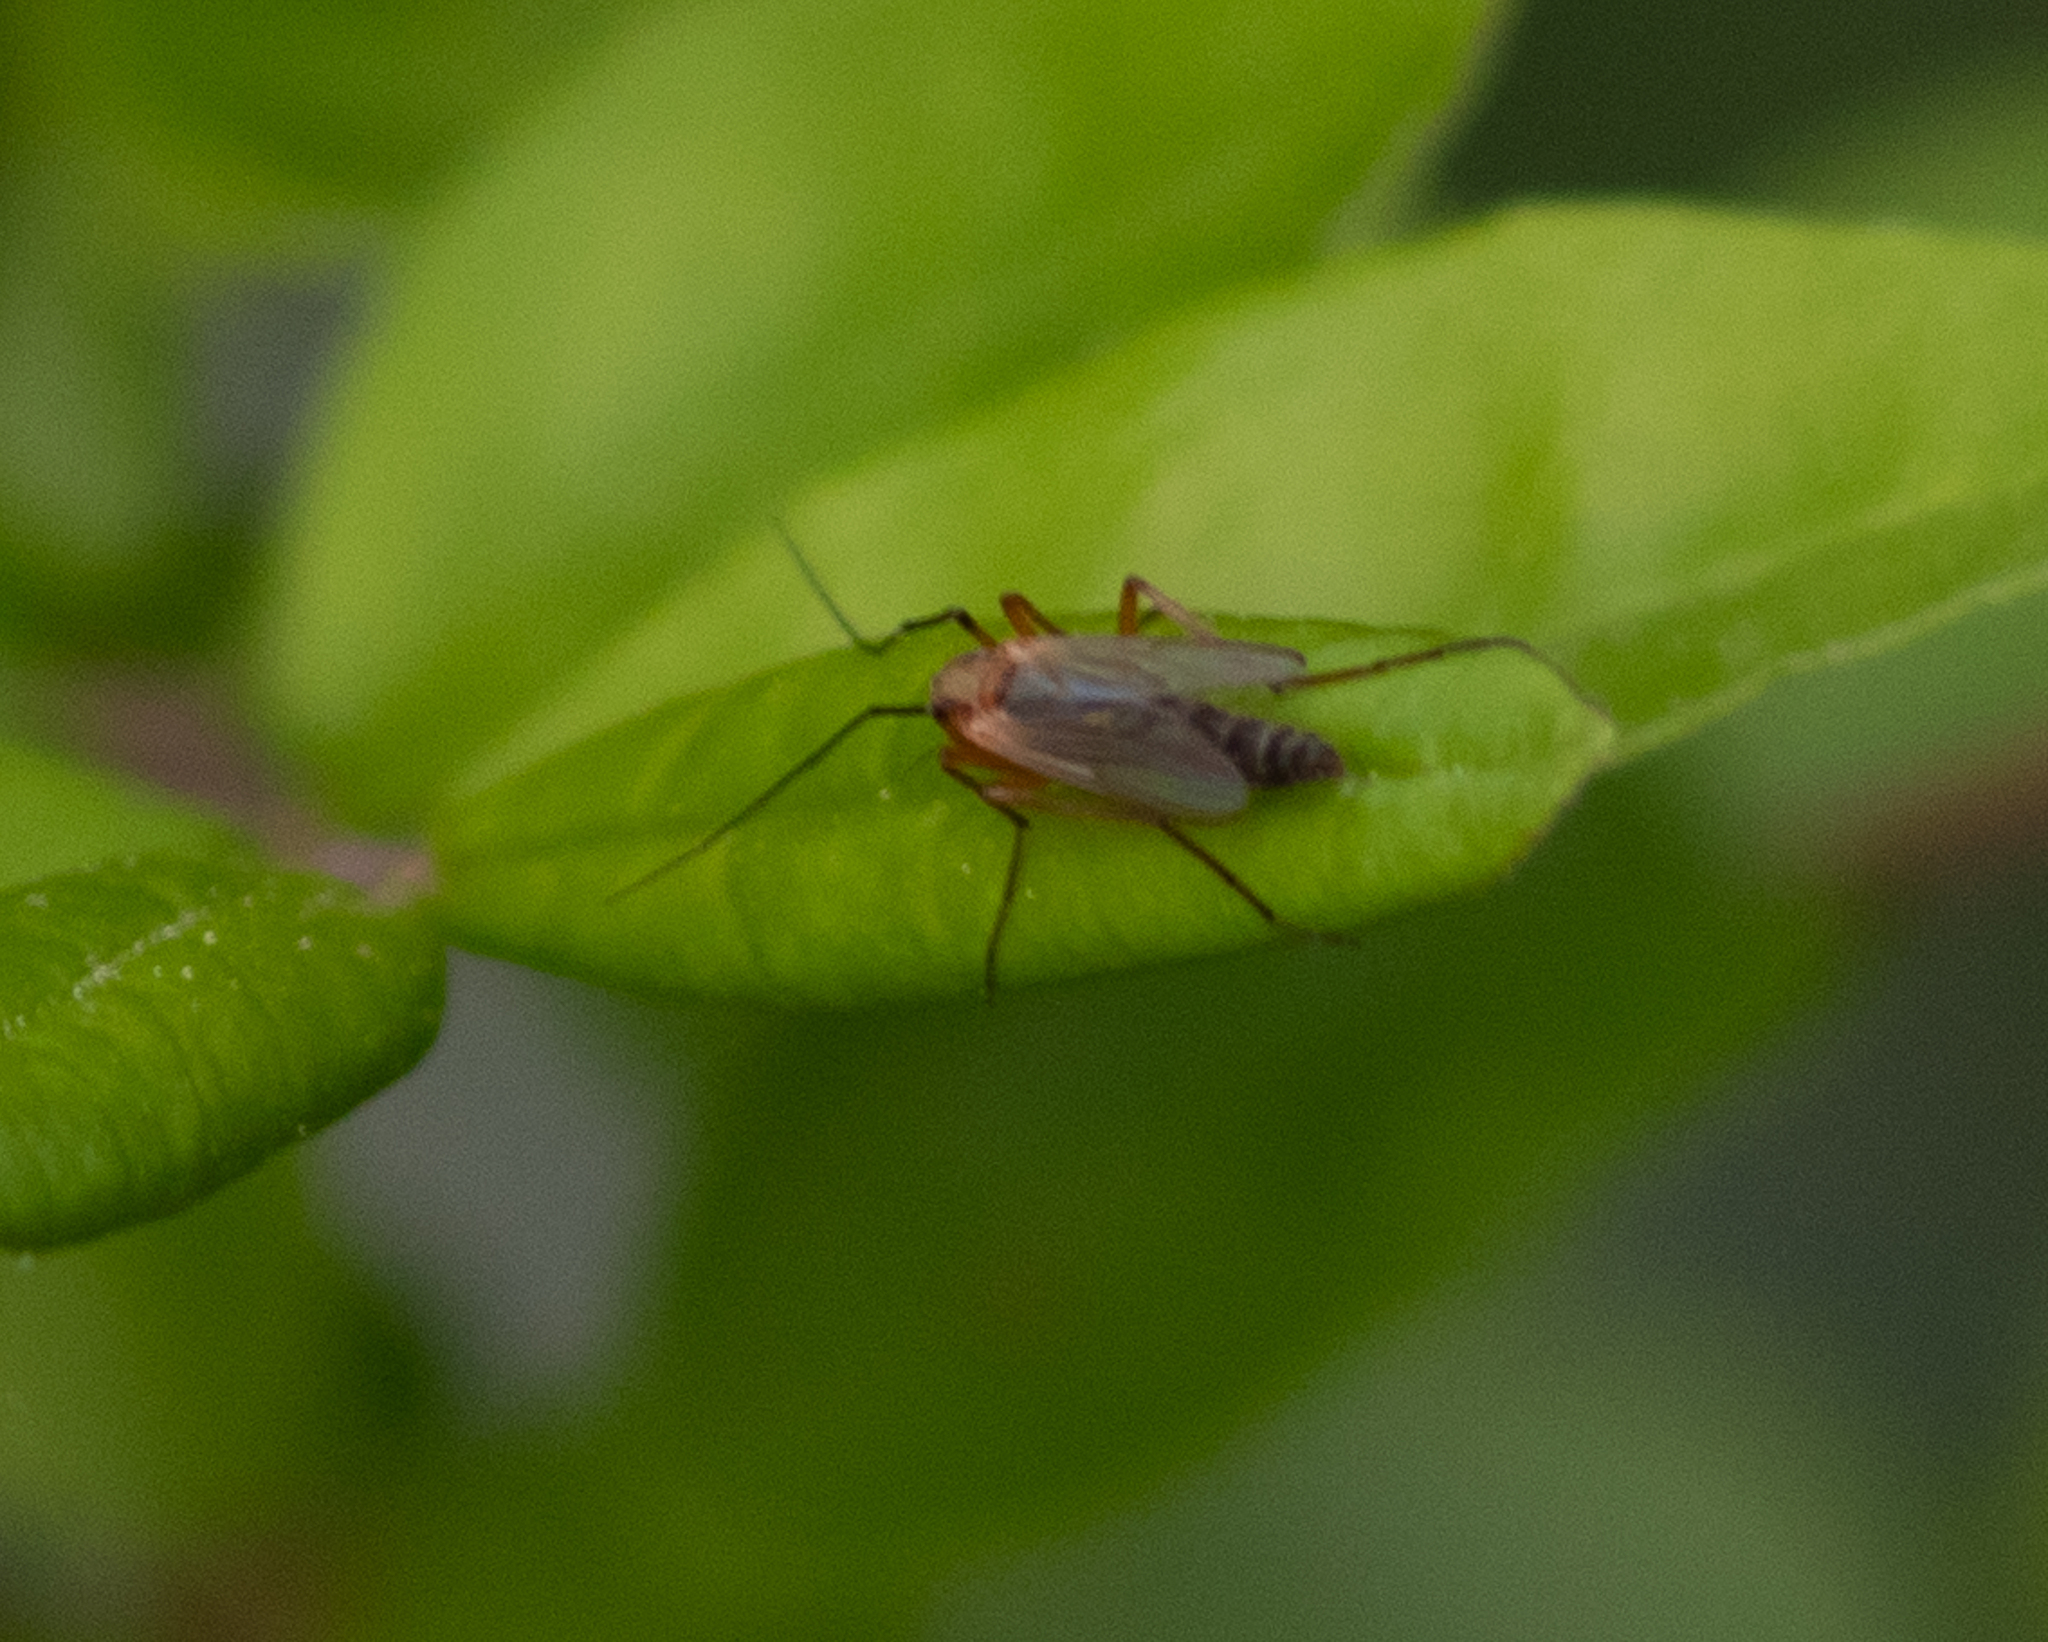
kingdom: Animalia
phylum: Arthropoda
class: Insecta
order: Diptera
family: Chironomidae
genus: Chironomus
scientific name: Chironomus ochreatus
